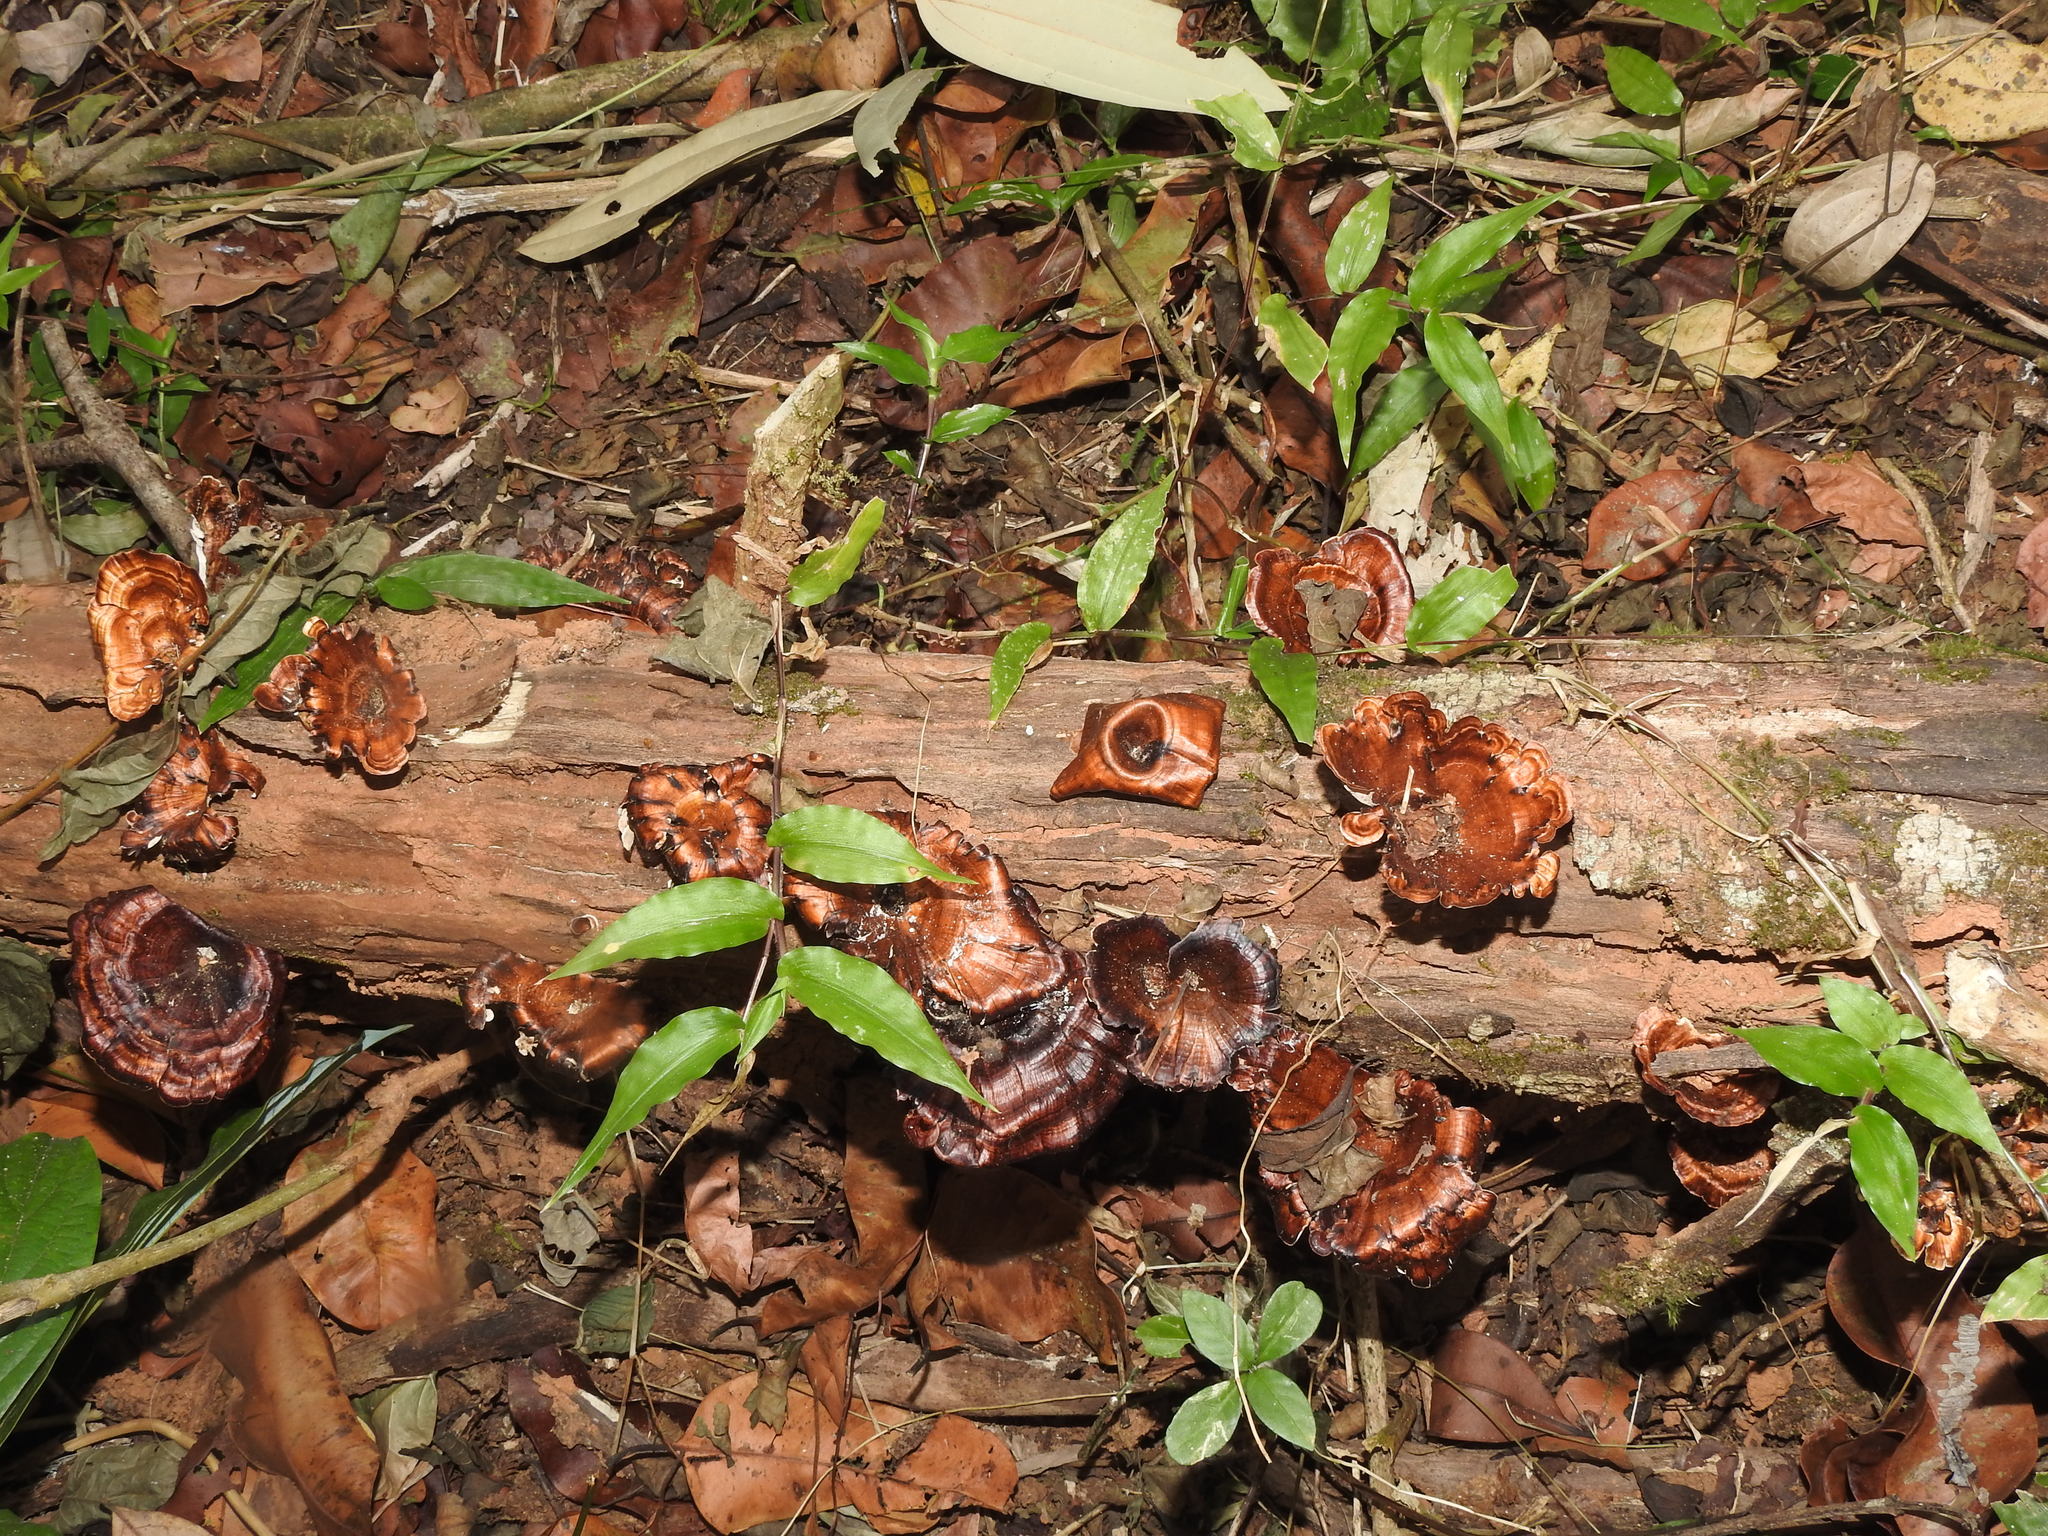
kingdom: Fungi
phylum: Basidiomycota
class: Agaricomycetes
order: Polyporales
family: Polyporaceae
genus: Microporus
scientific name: Microporus xanthopus
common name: Yellow-stemmed micropore
